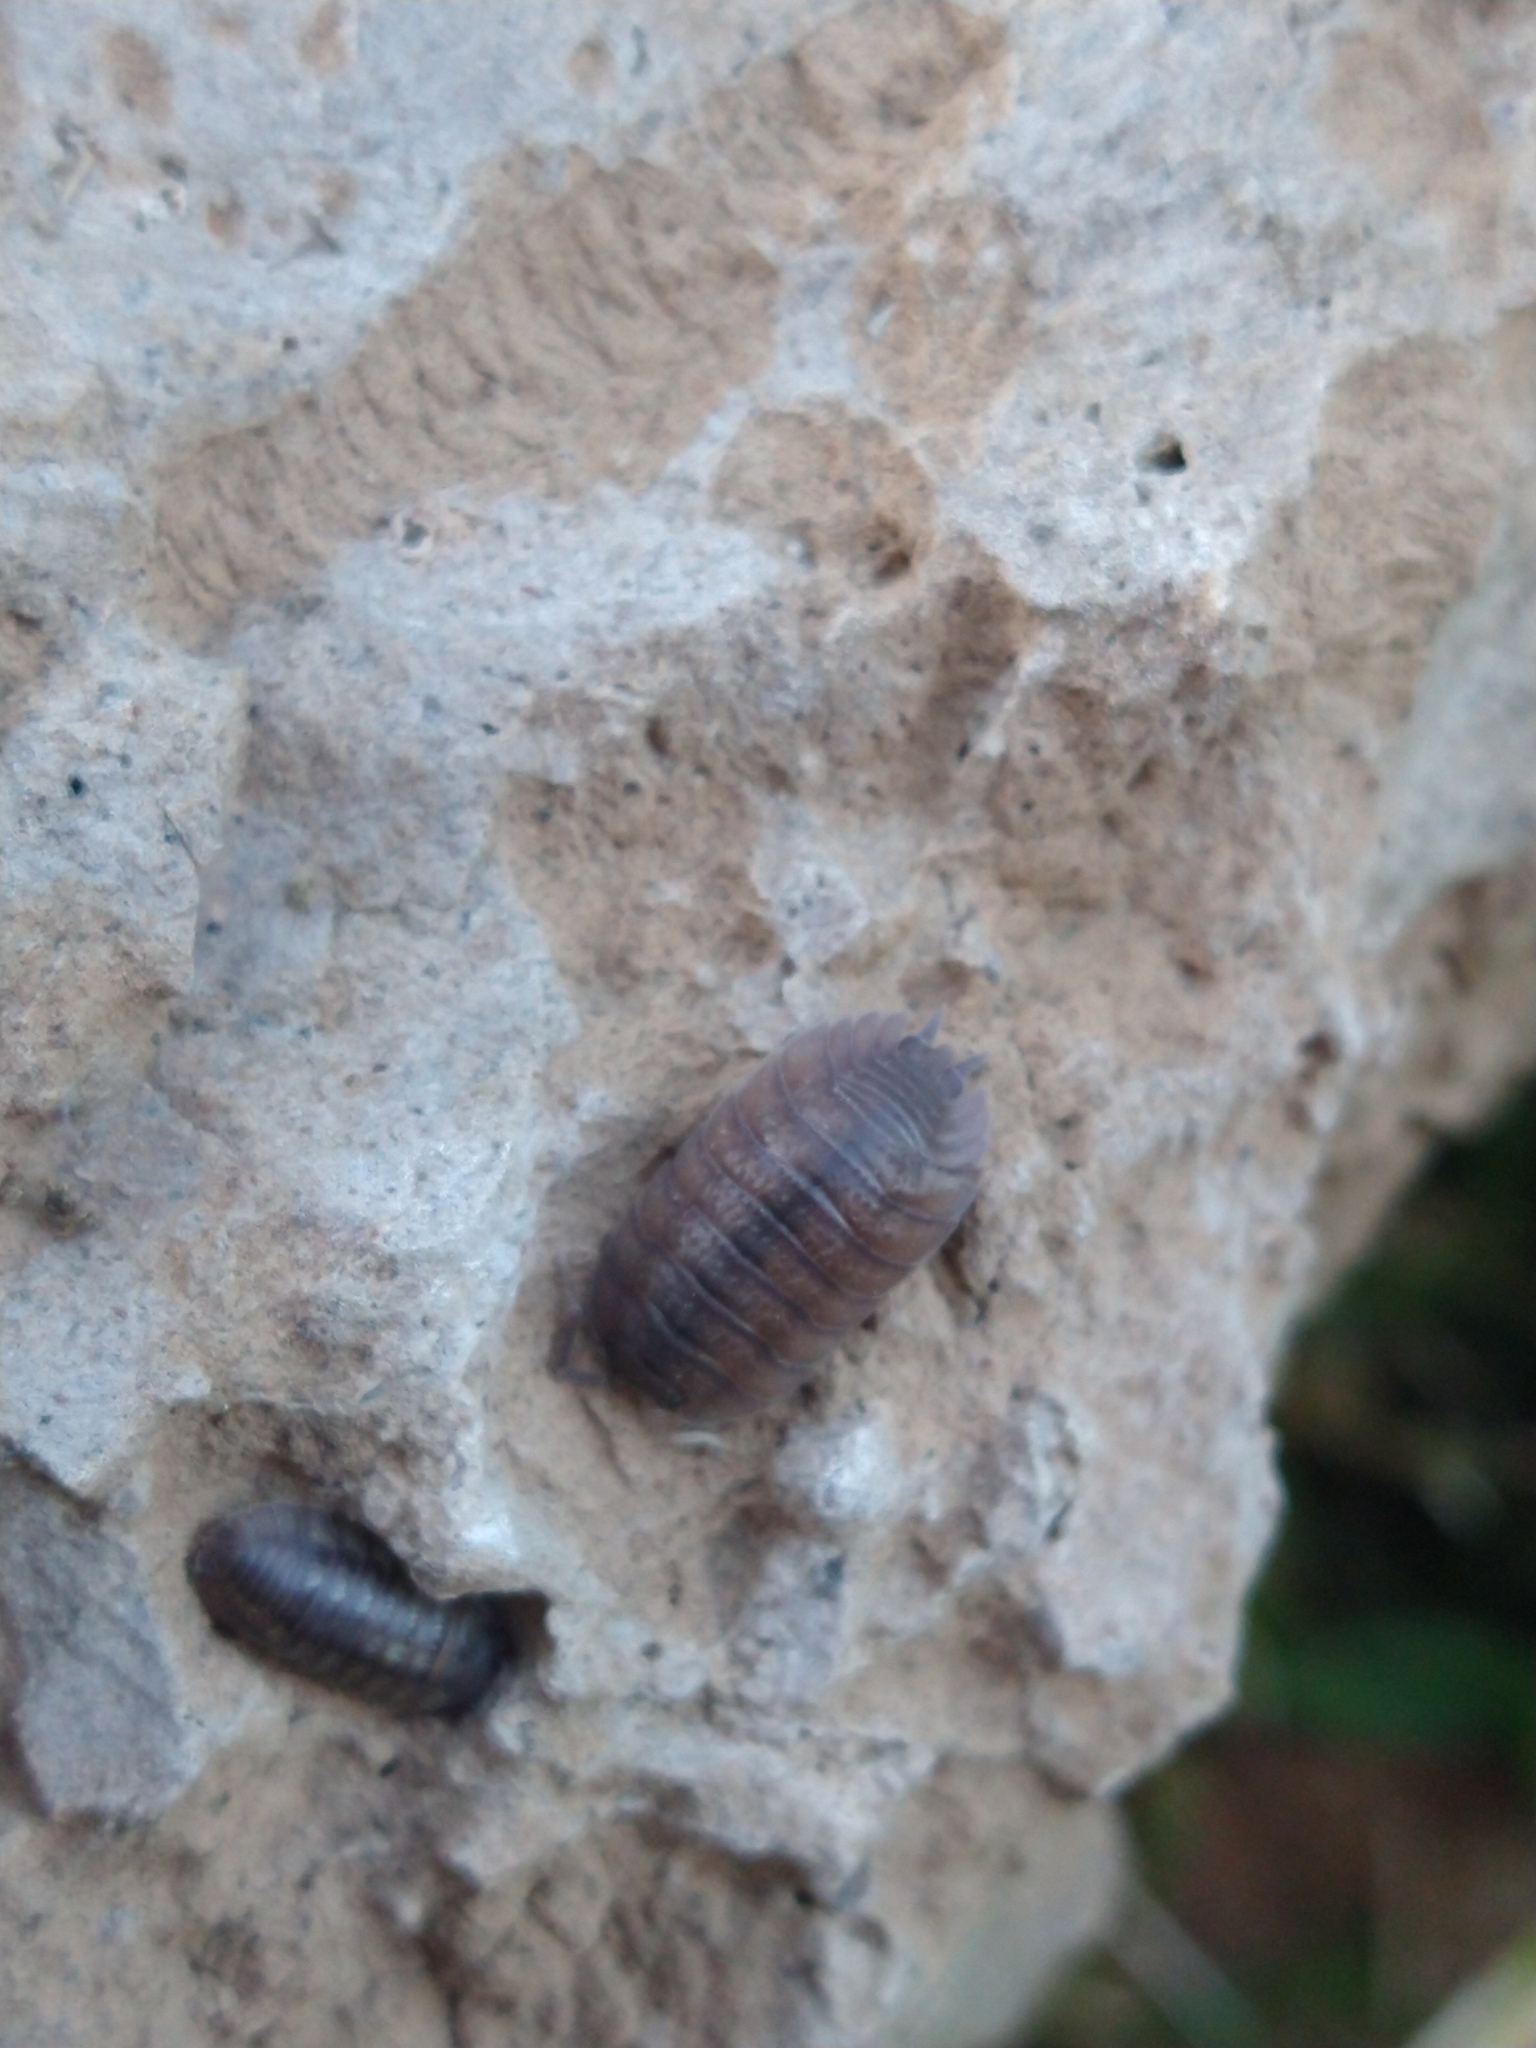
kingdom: Animalia
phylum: Arthropoda
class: Malacostraca
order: Isopoda
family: Porcellionidae
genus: Porcellio
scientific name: Porcellio dilatatus
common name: Isopod
